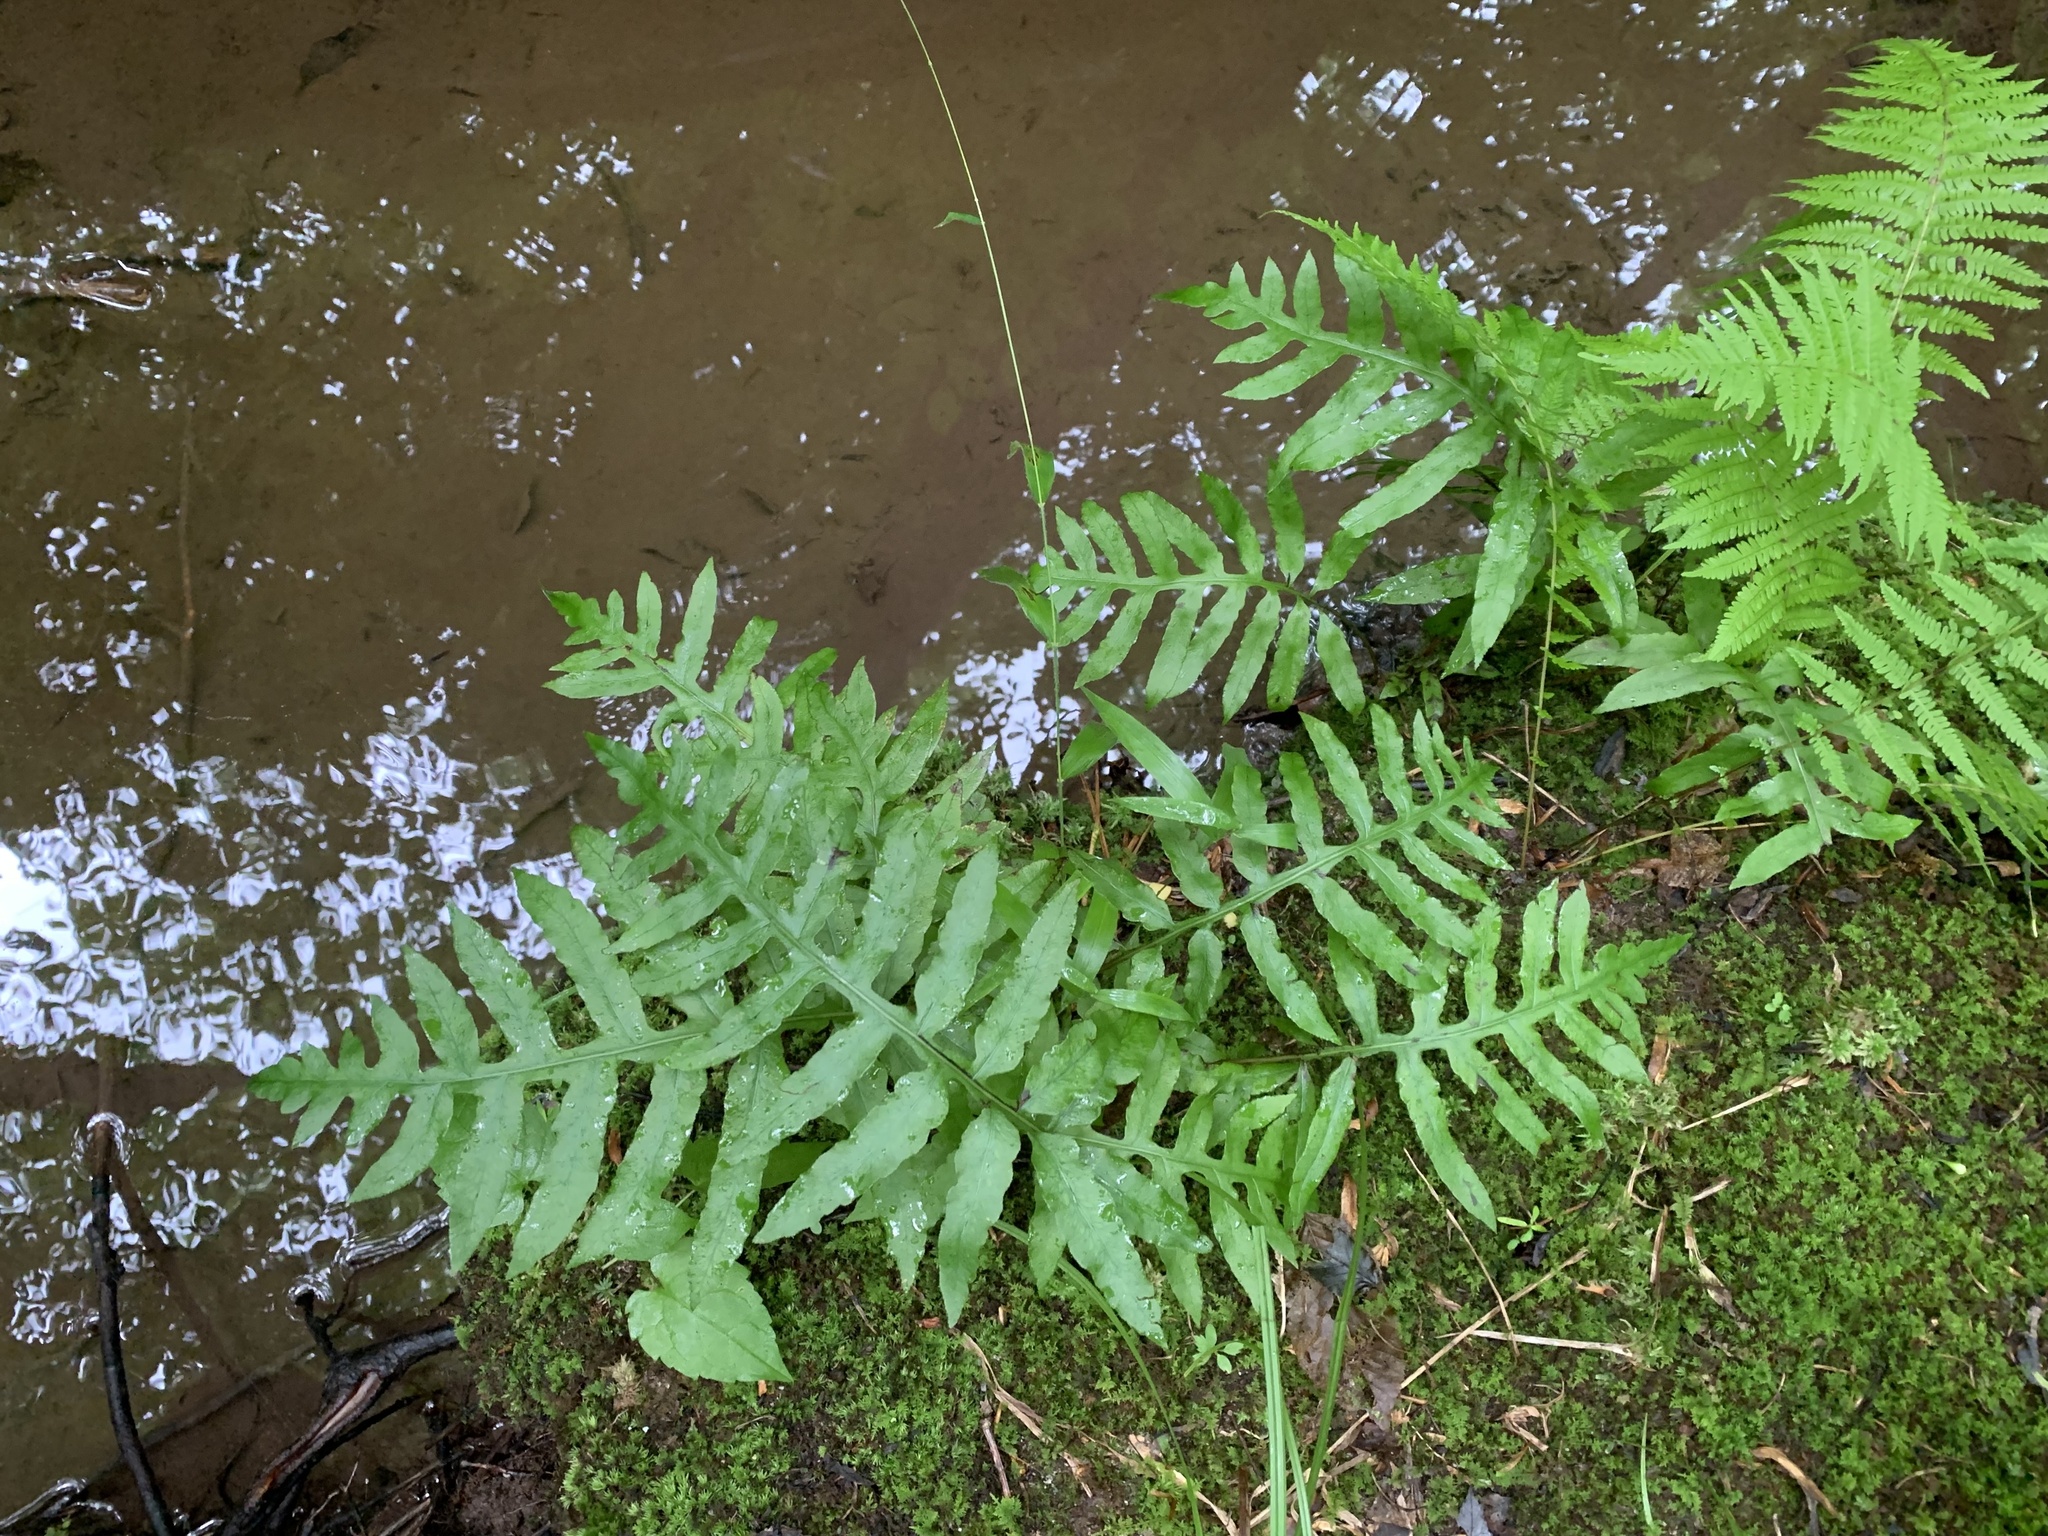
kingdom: Plantae
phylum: Tracheophyta
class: Polypodiopsida
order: Polypodiales
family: Blechnaceae
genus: Lorinseria
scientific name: Lorinseria areolata
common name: Dwarf chain fern
